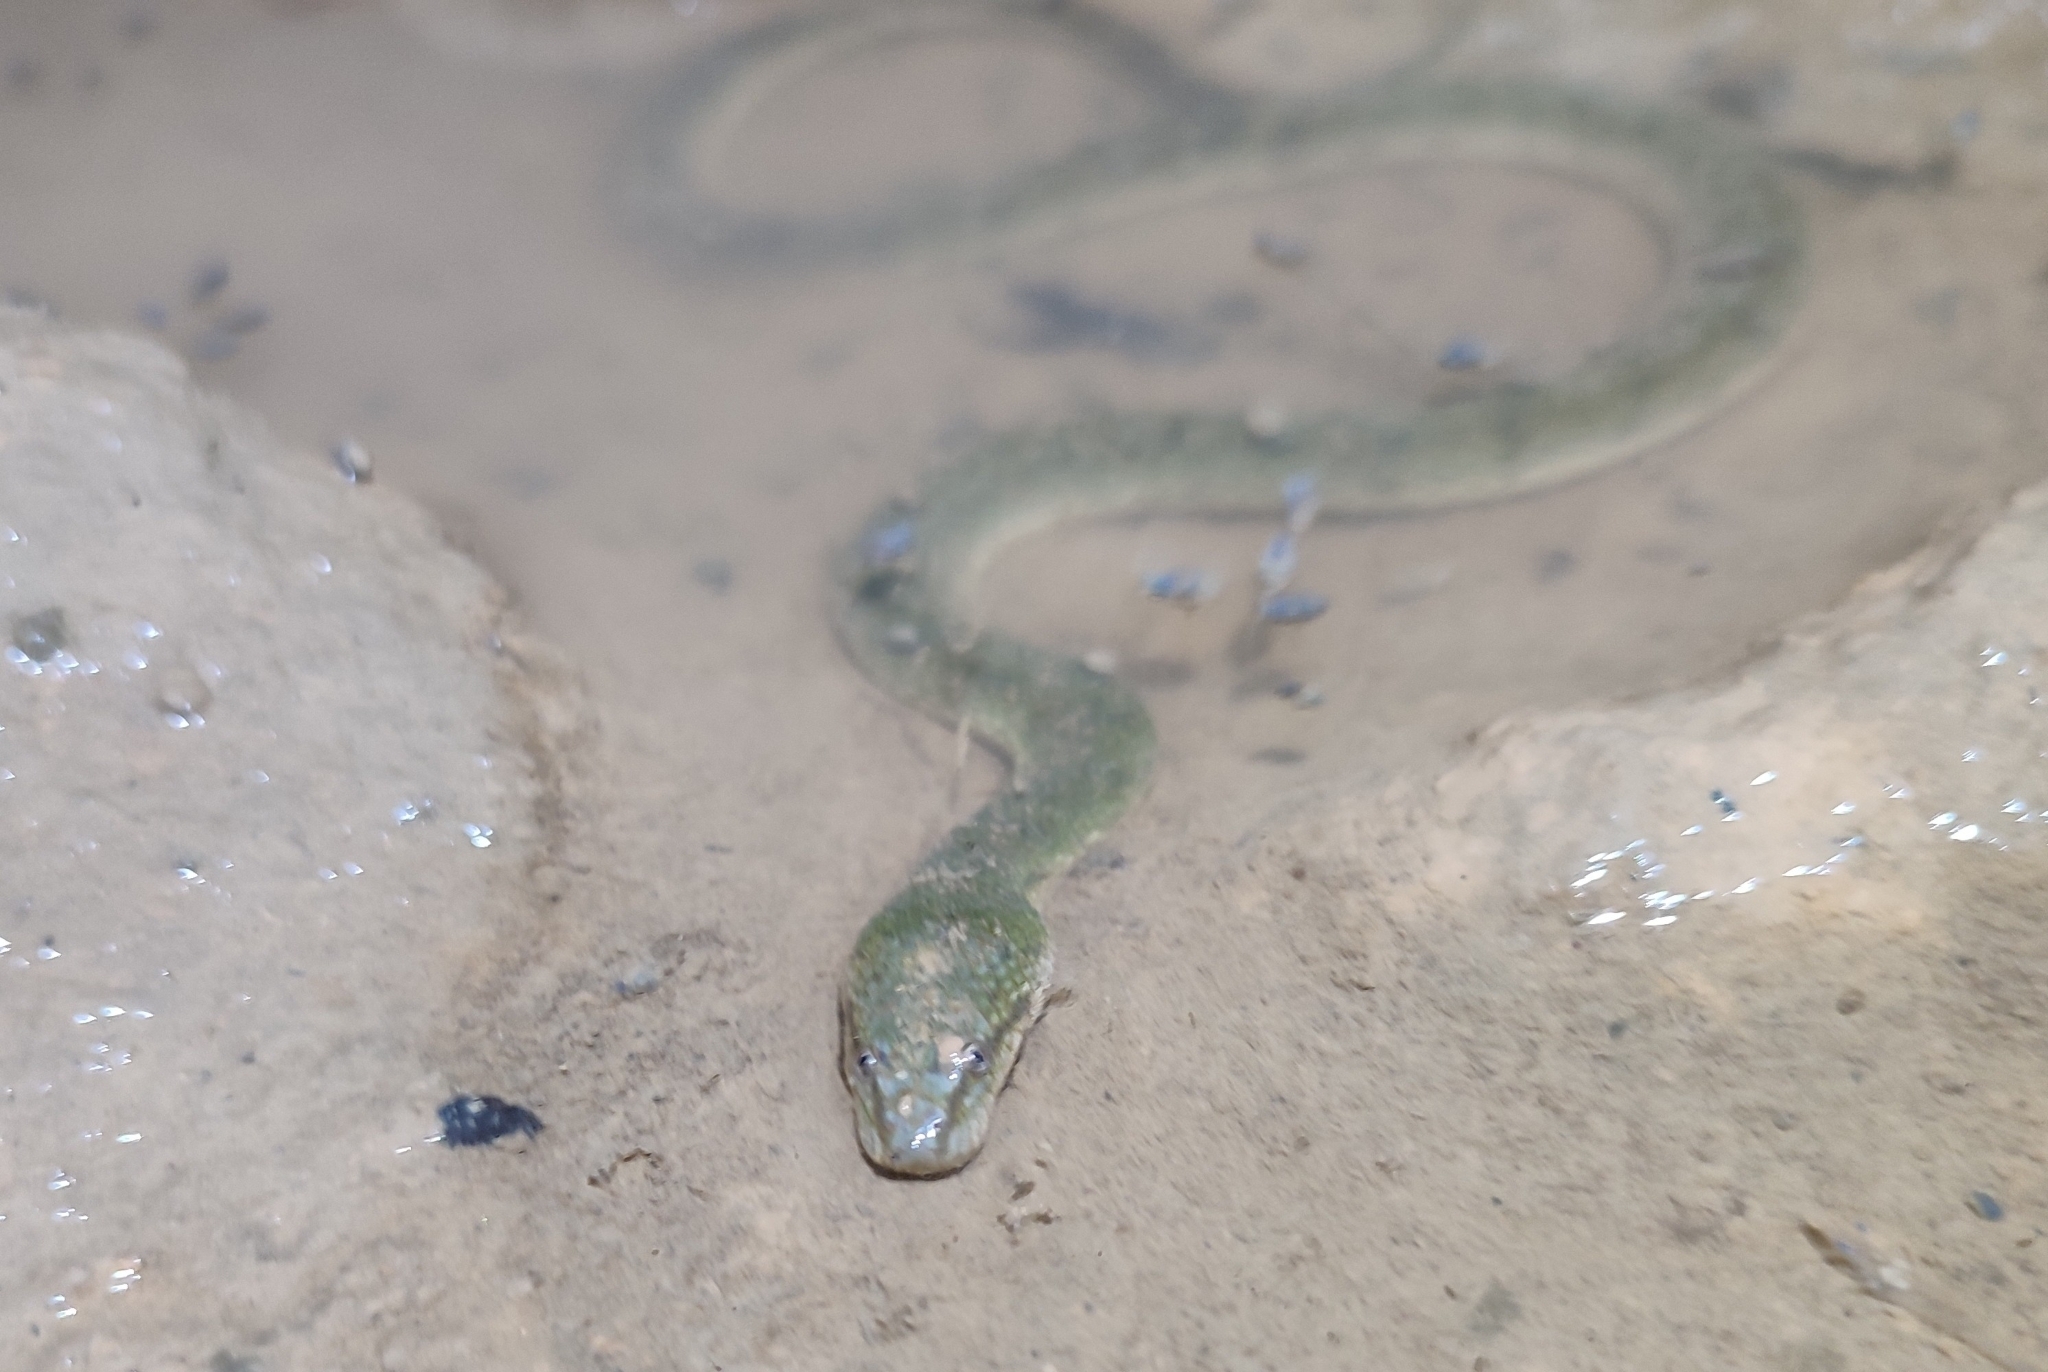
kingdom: Animalia
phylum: Chordata
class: Squamata
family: Homalopsidae
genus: Cerberus
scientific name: Cerberus schneiderii
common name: Southeast asian bockadam
